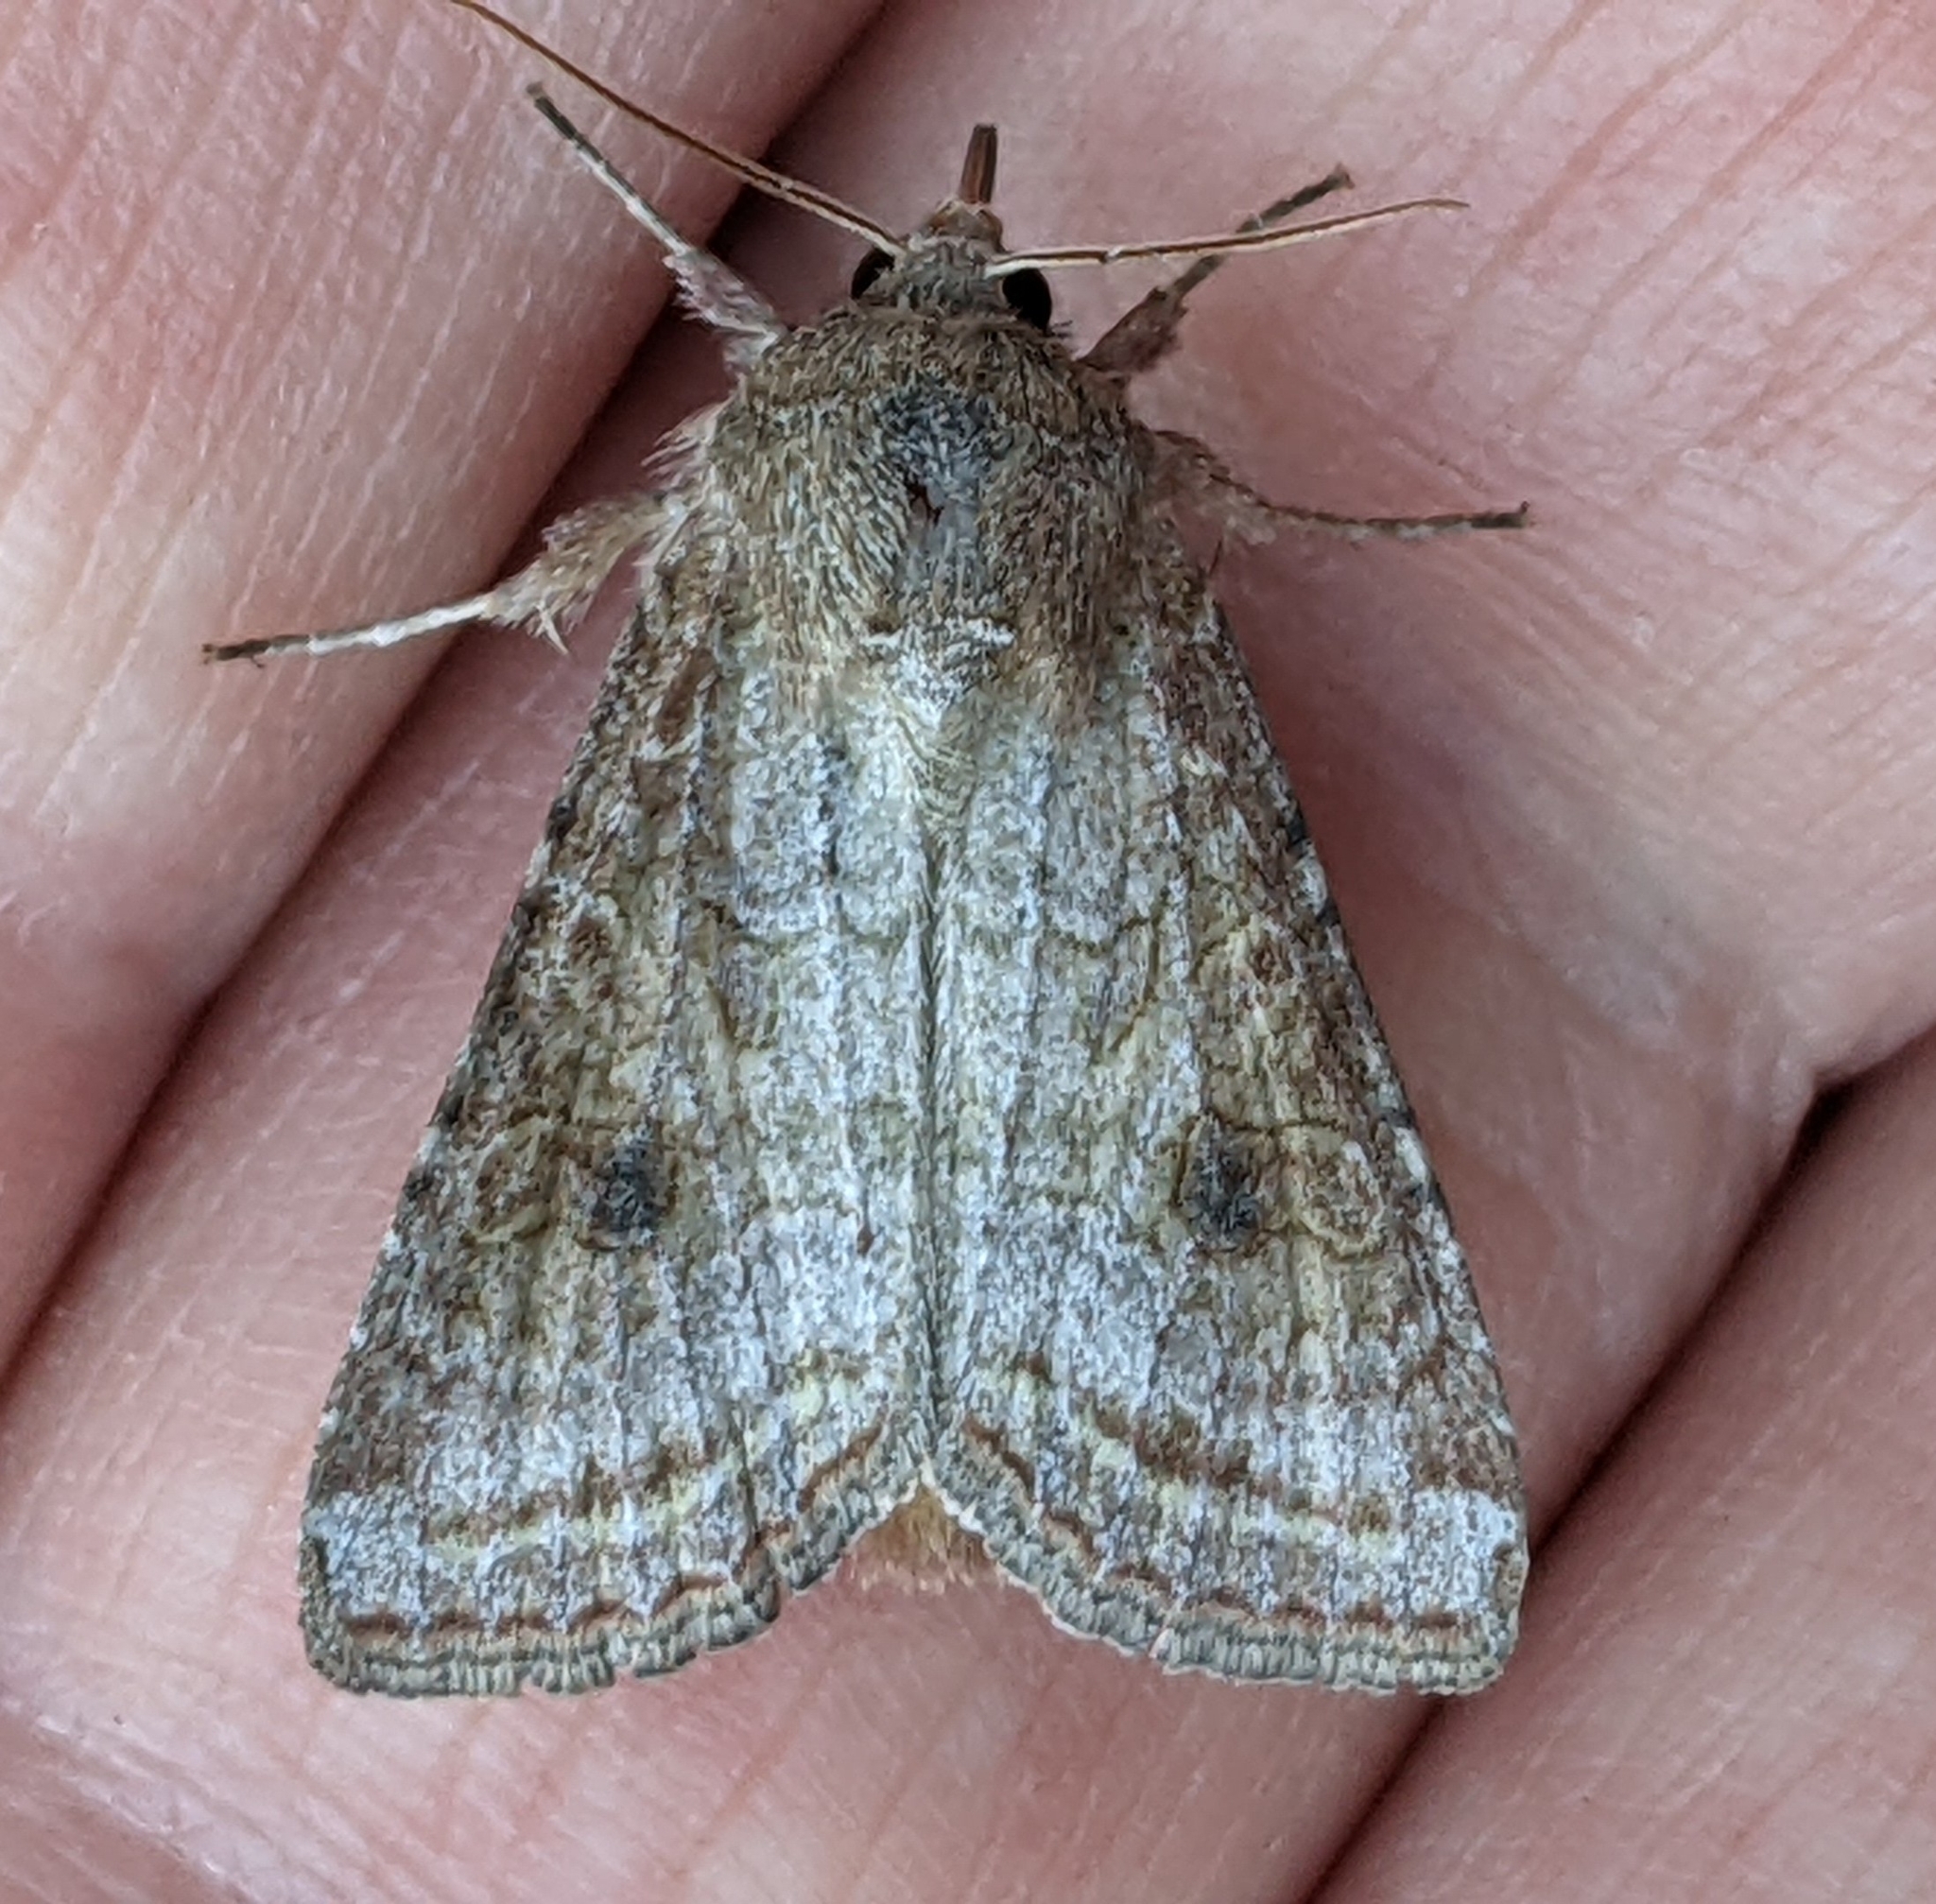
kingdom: Animalia
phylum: Arthropoda
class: Insecta
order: Lepidoptera
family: Noctuidae
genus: Trichordestra
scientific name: Trichordestra lilacina
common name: Aster cutworm
